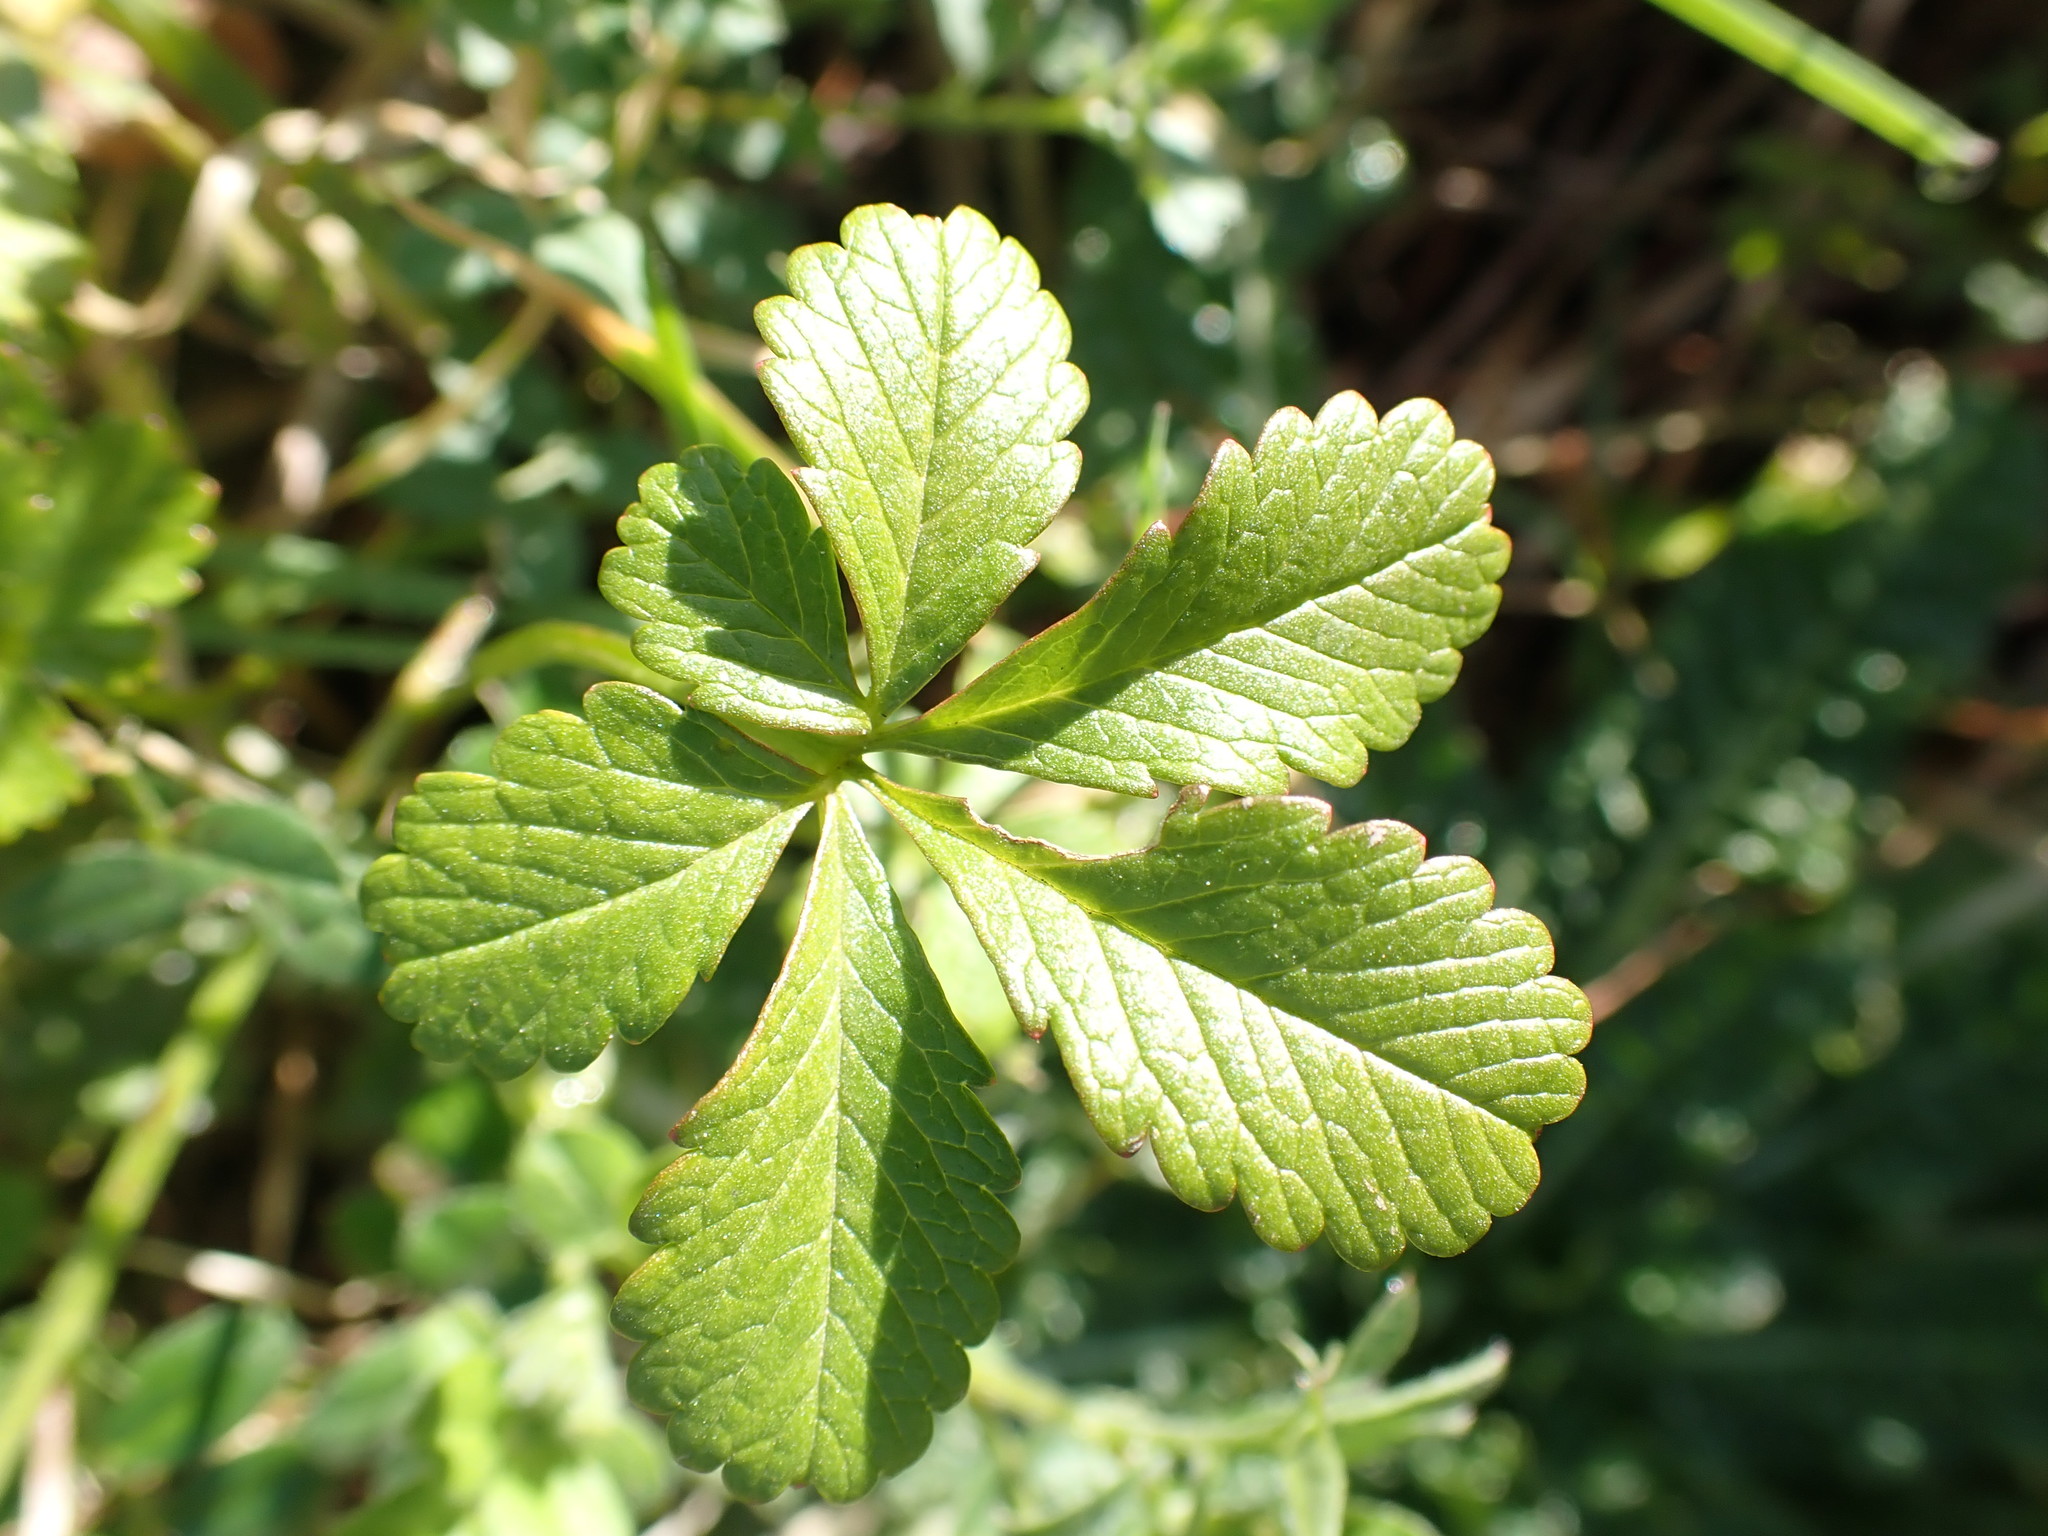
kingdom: Plantae
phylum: Tracheophyta
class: Magnoliopsida
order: Rosales
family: Rosaceae
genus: Potentilla
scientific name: Potentilla reptans
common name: Creeping cinquefoil
